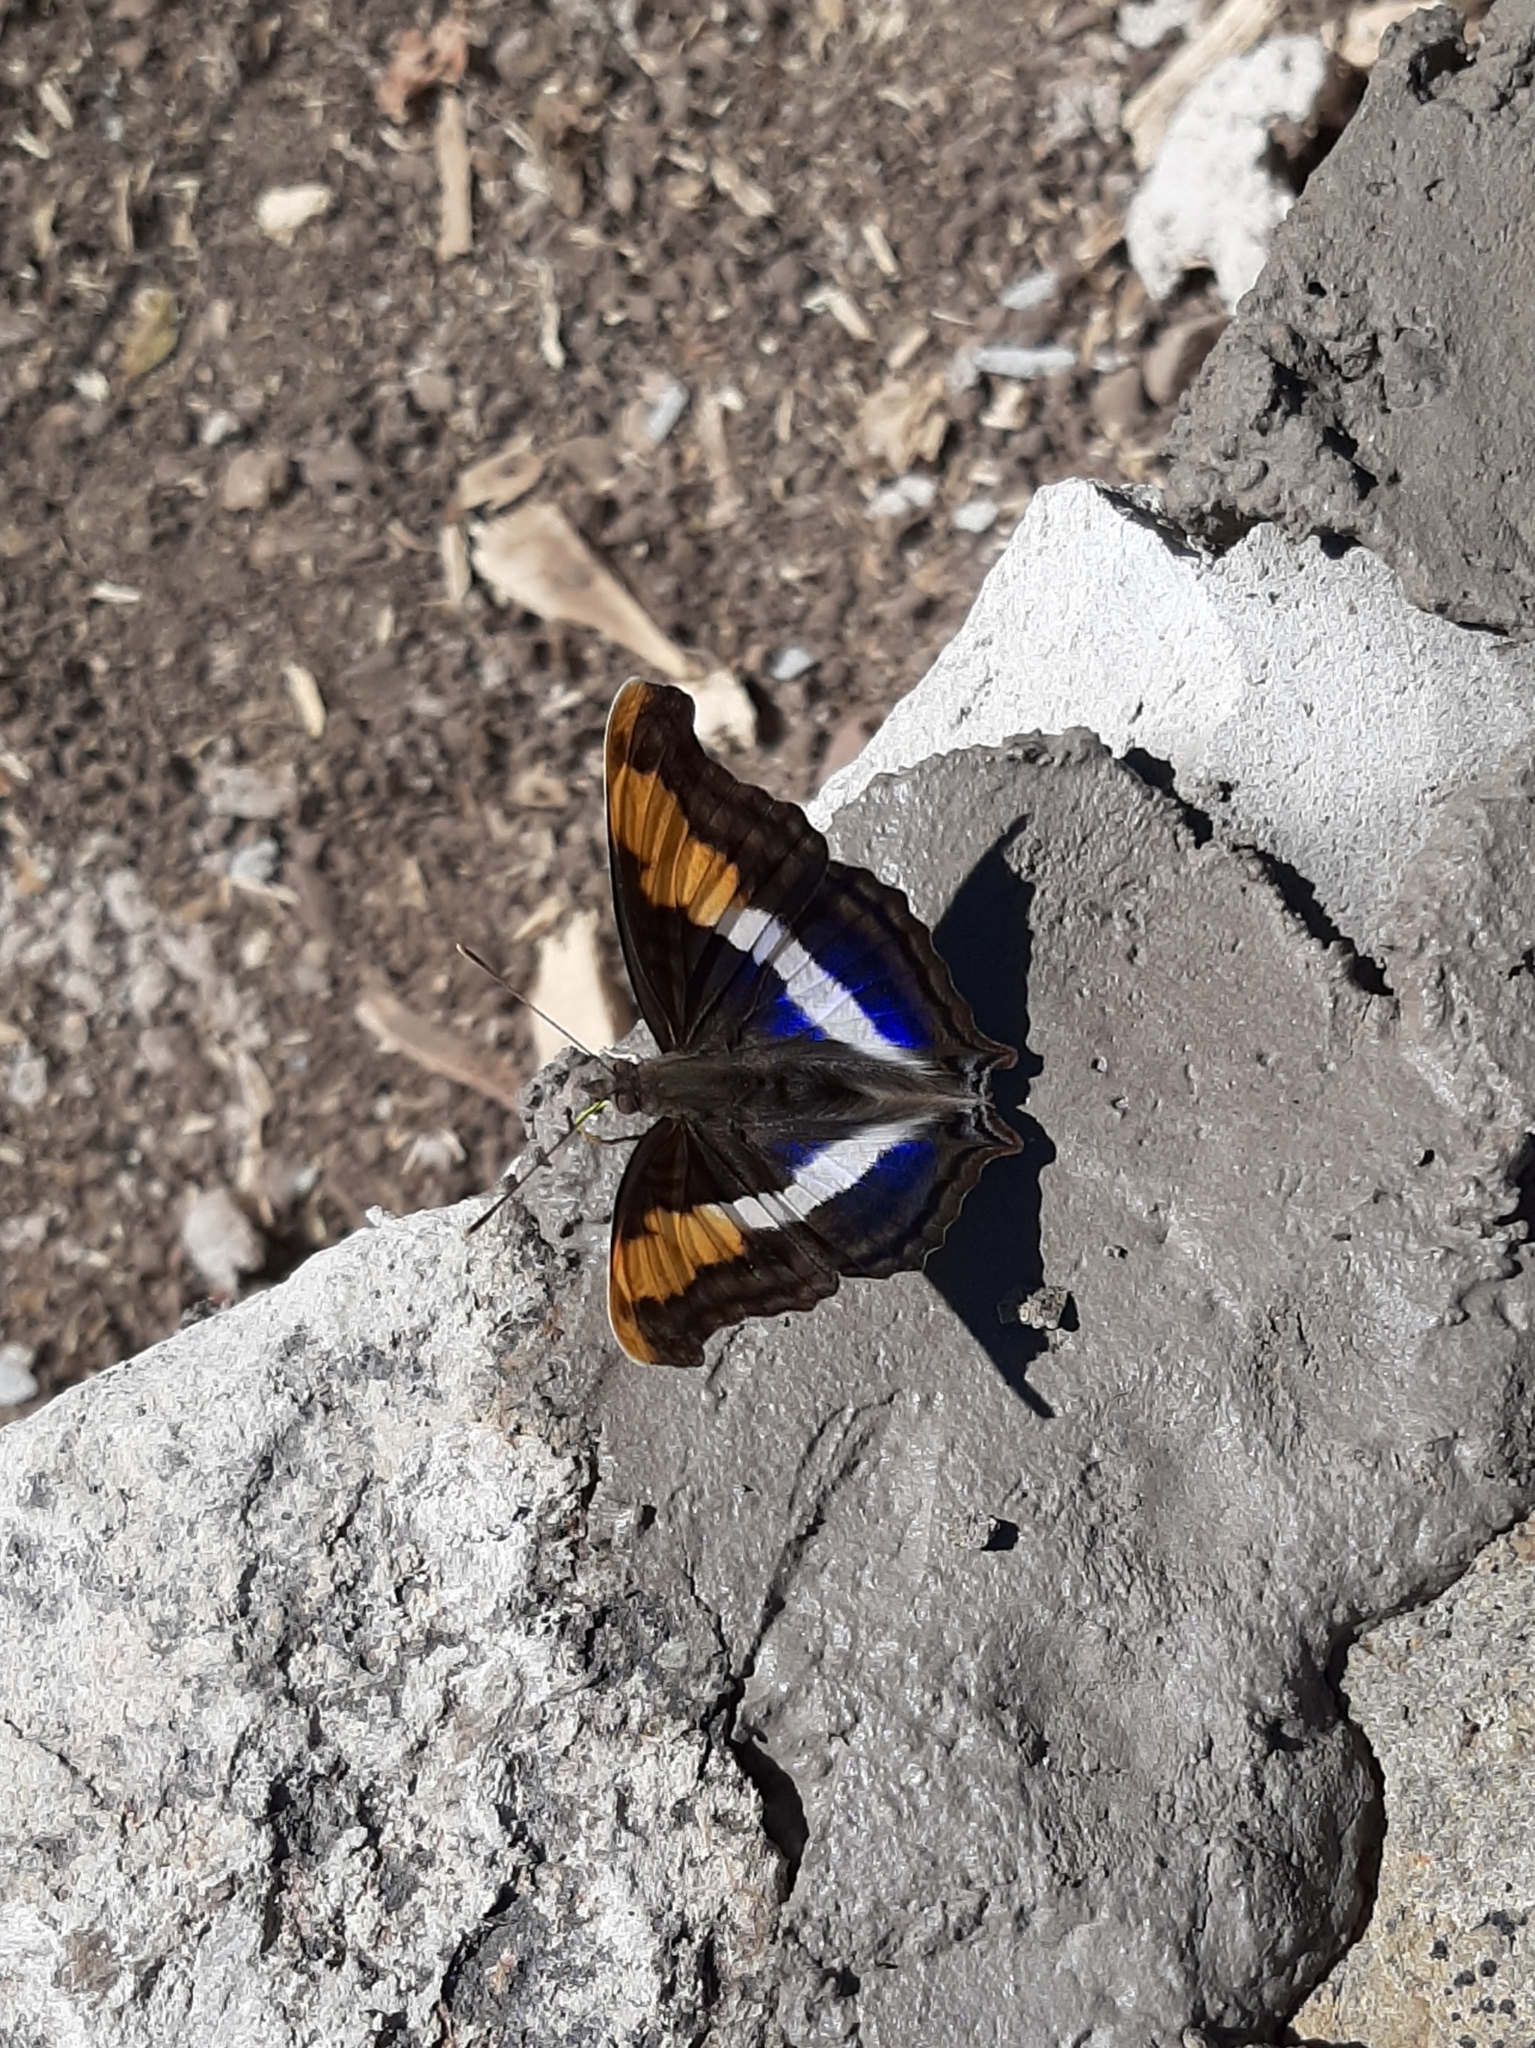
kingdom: Animalia
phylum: Arthropoda
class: Insecta
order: Lepidoptera
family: Nymphalidae
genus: Doxocopa
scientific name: Doxocopa laure
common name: Silver emperor
